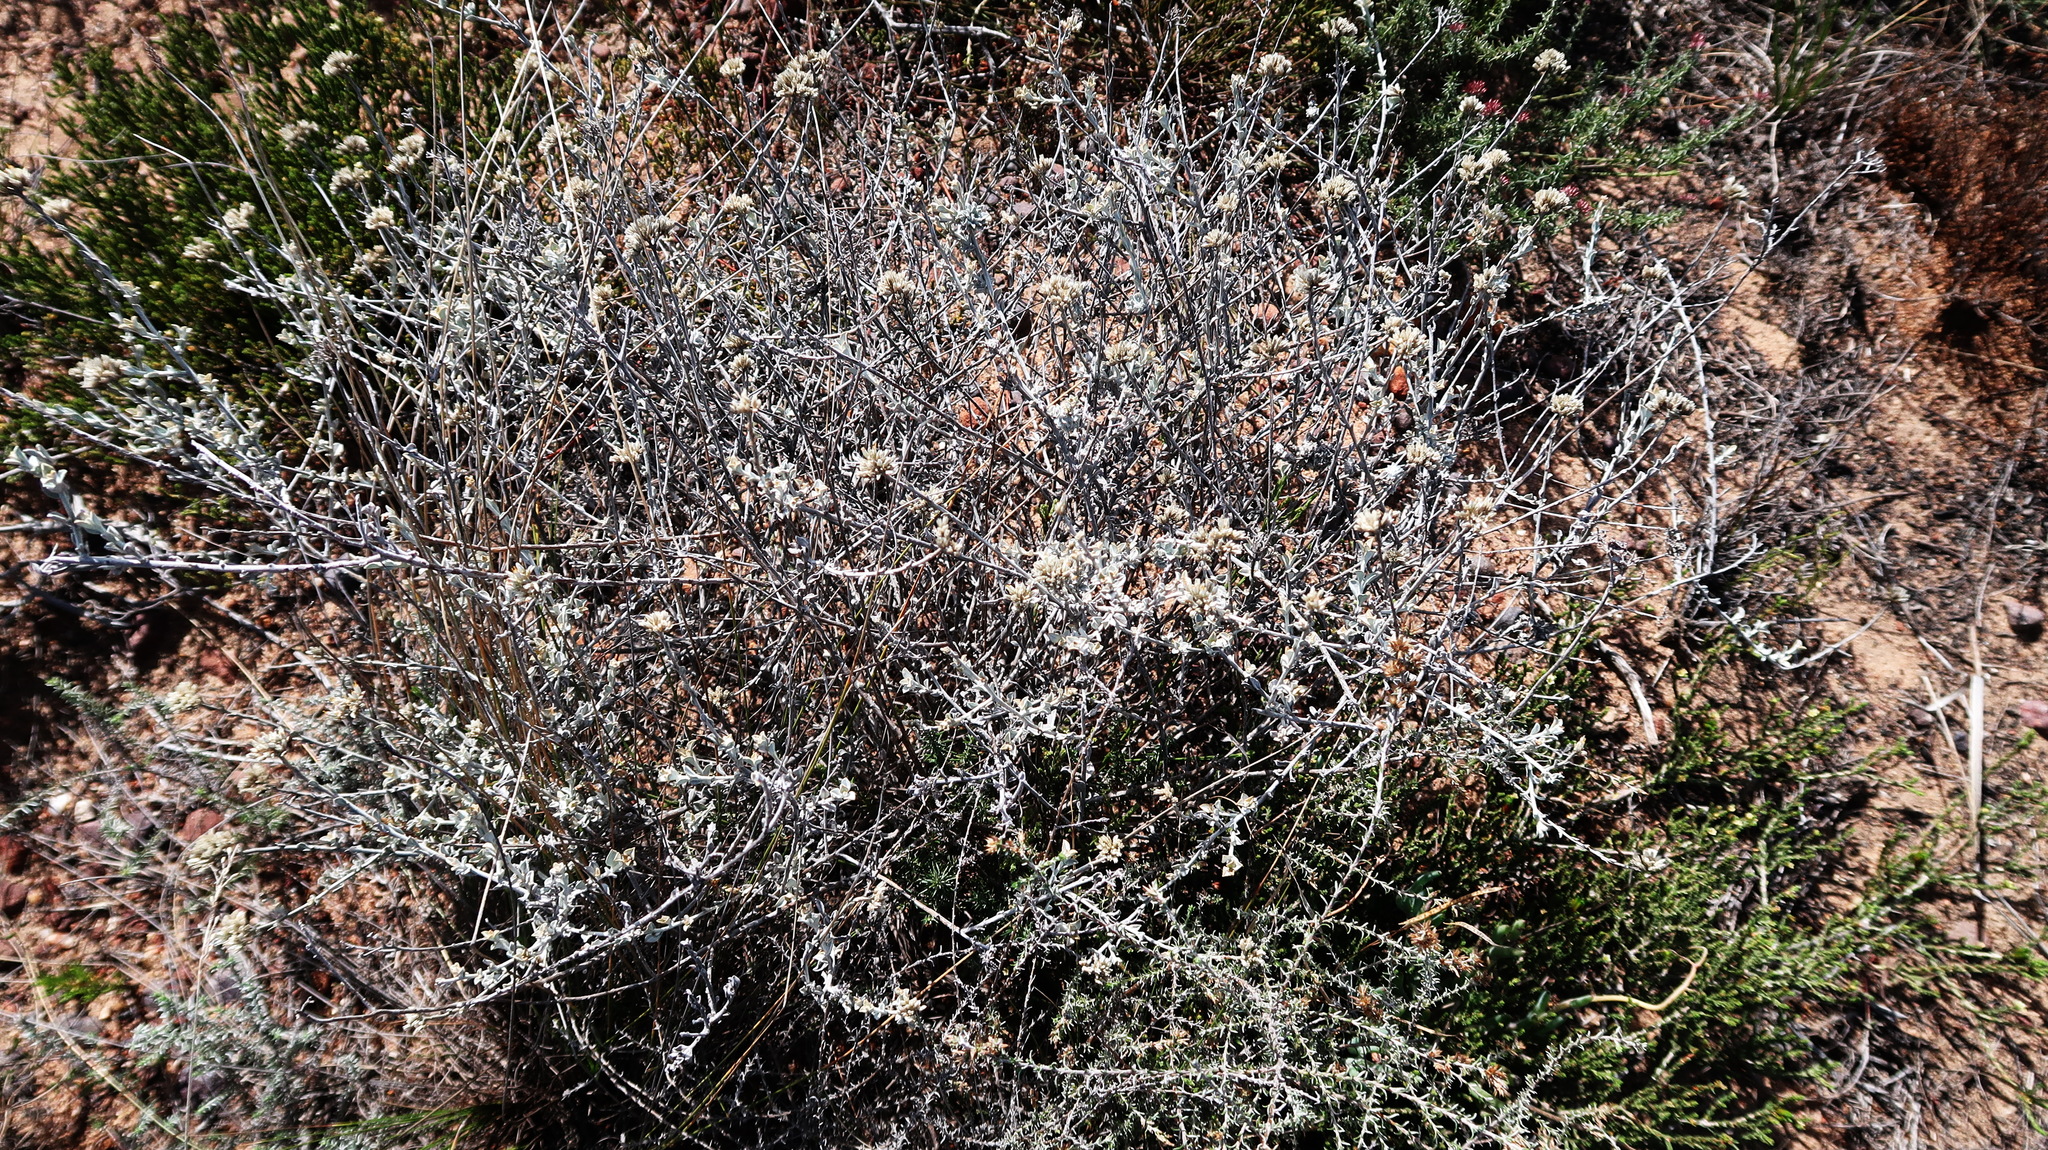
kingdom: Plantae
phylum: Tracheophyta
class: Magnoliopsida
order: Asterales
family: Asteraceae
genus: Helichrysum
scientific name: Helichrysum zeyheri
